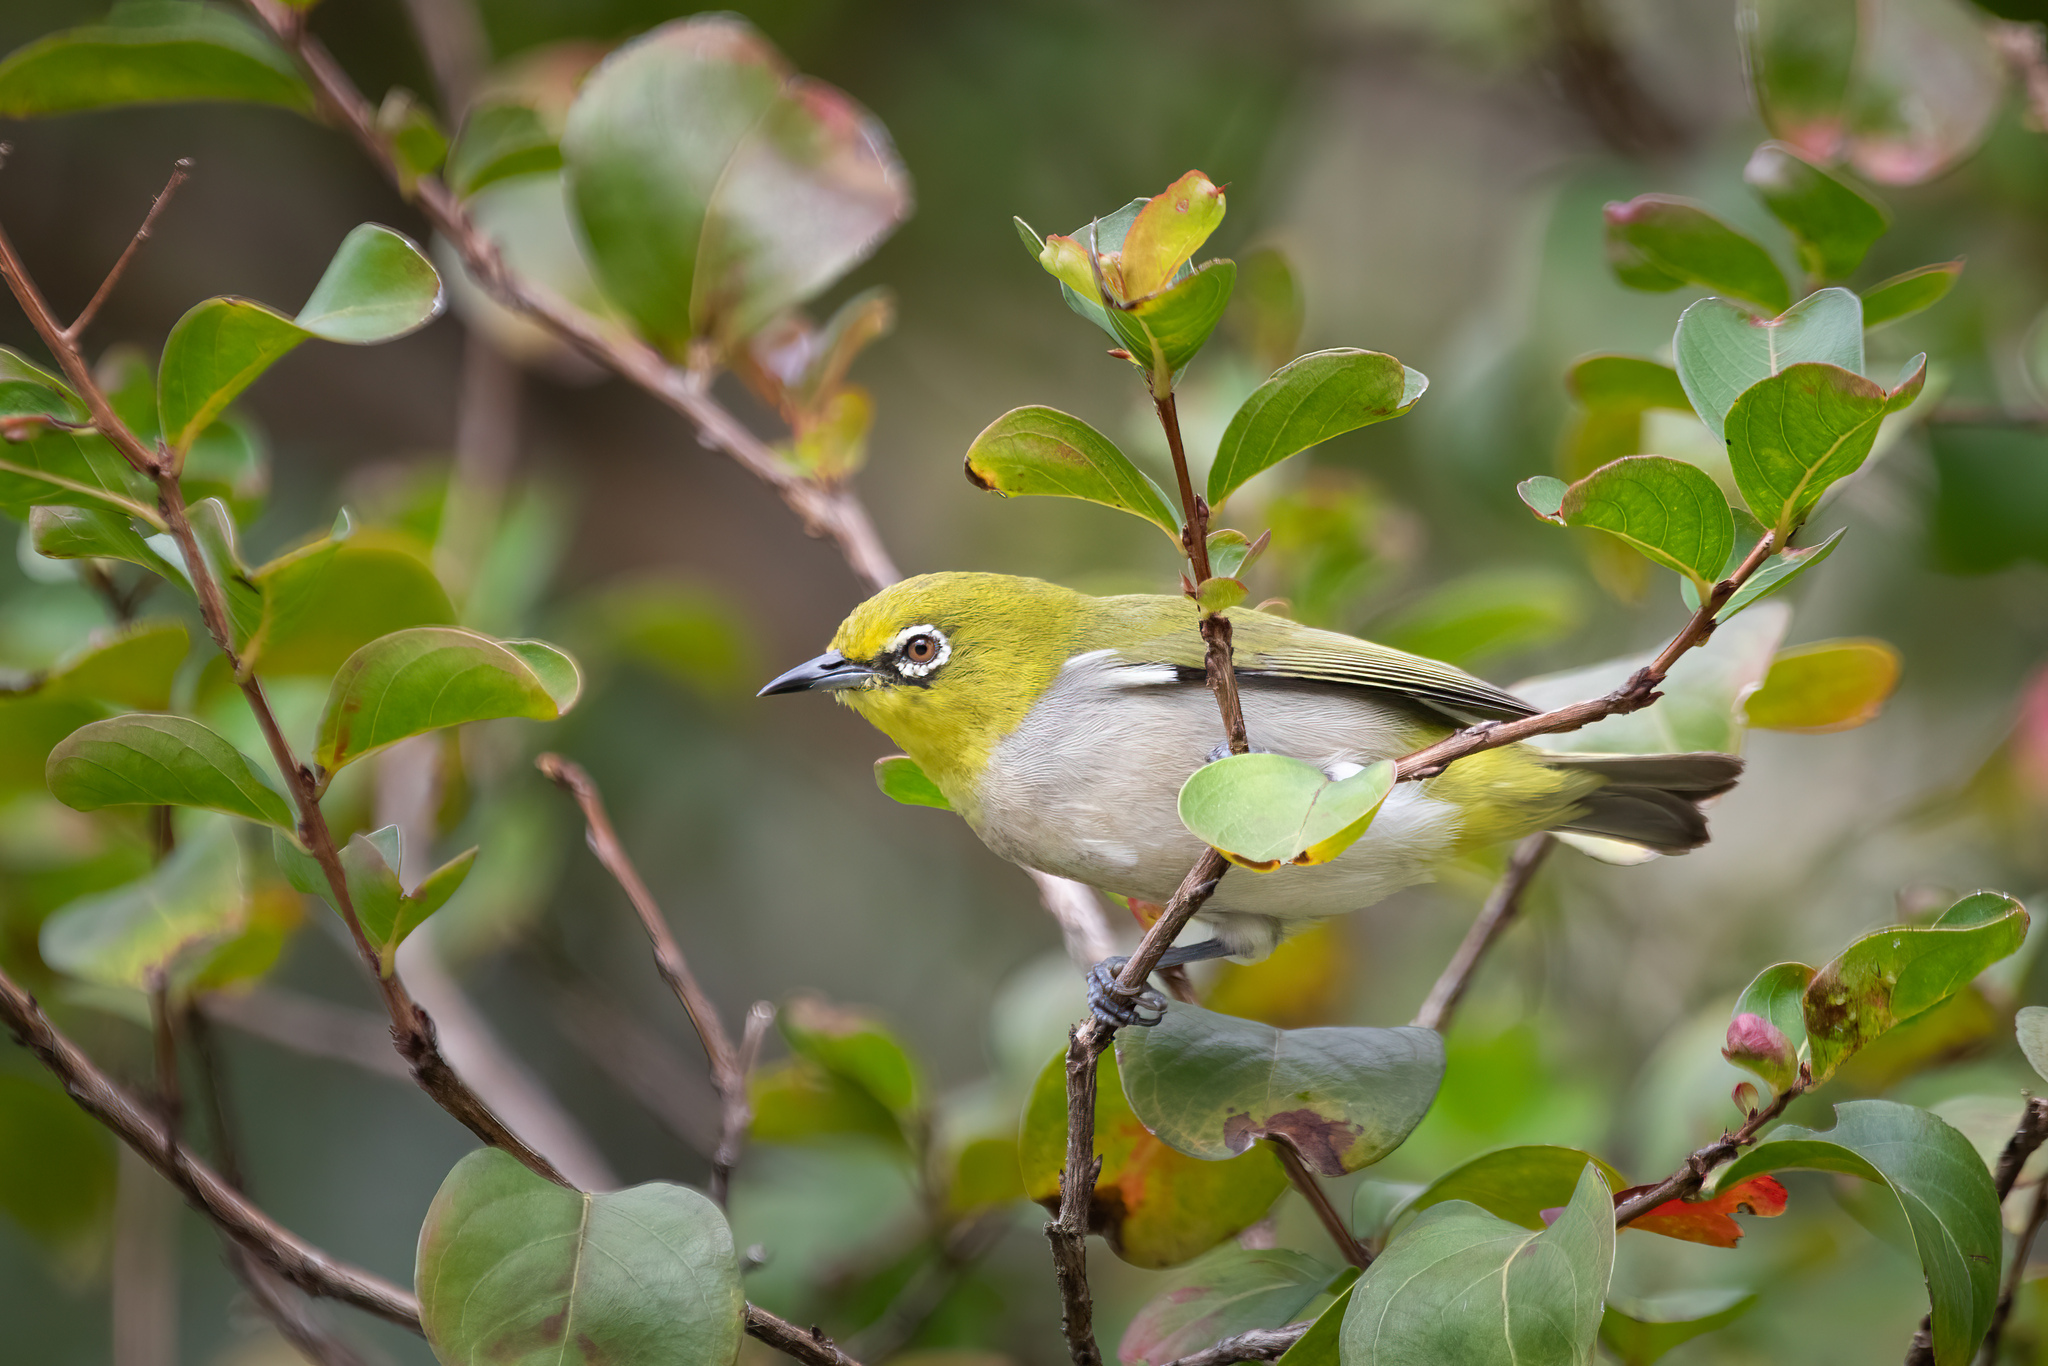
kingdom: Animalia
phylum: Chordata
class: Aves
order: Passeriformes
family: Zosteropidae
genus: Zosterops
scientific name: Zosterops simplex
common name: Swinhoe's white-eye
